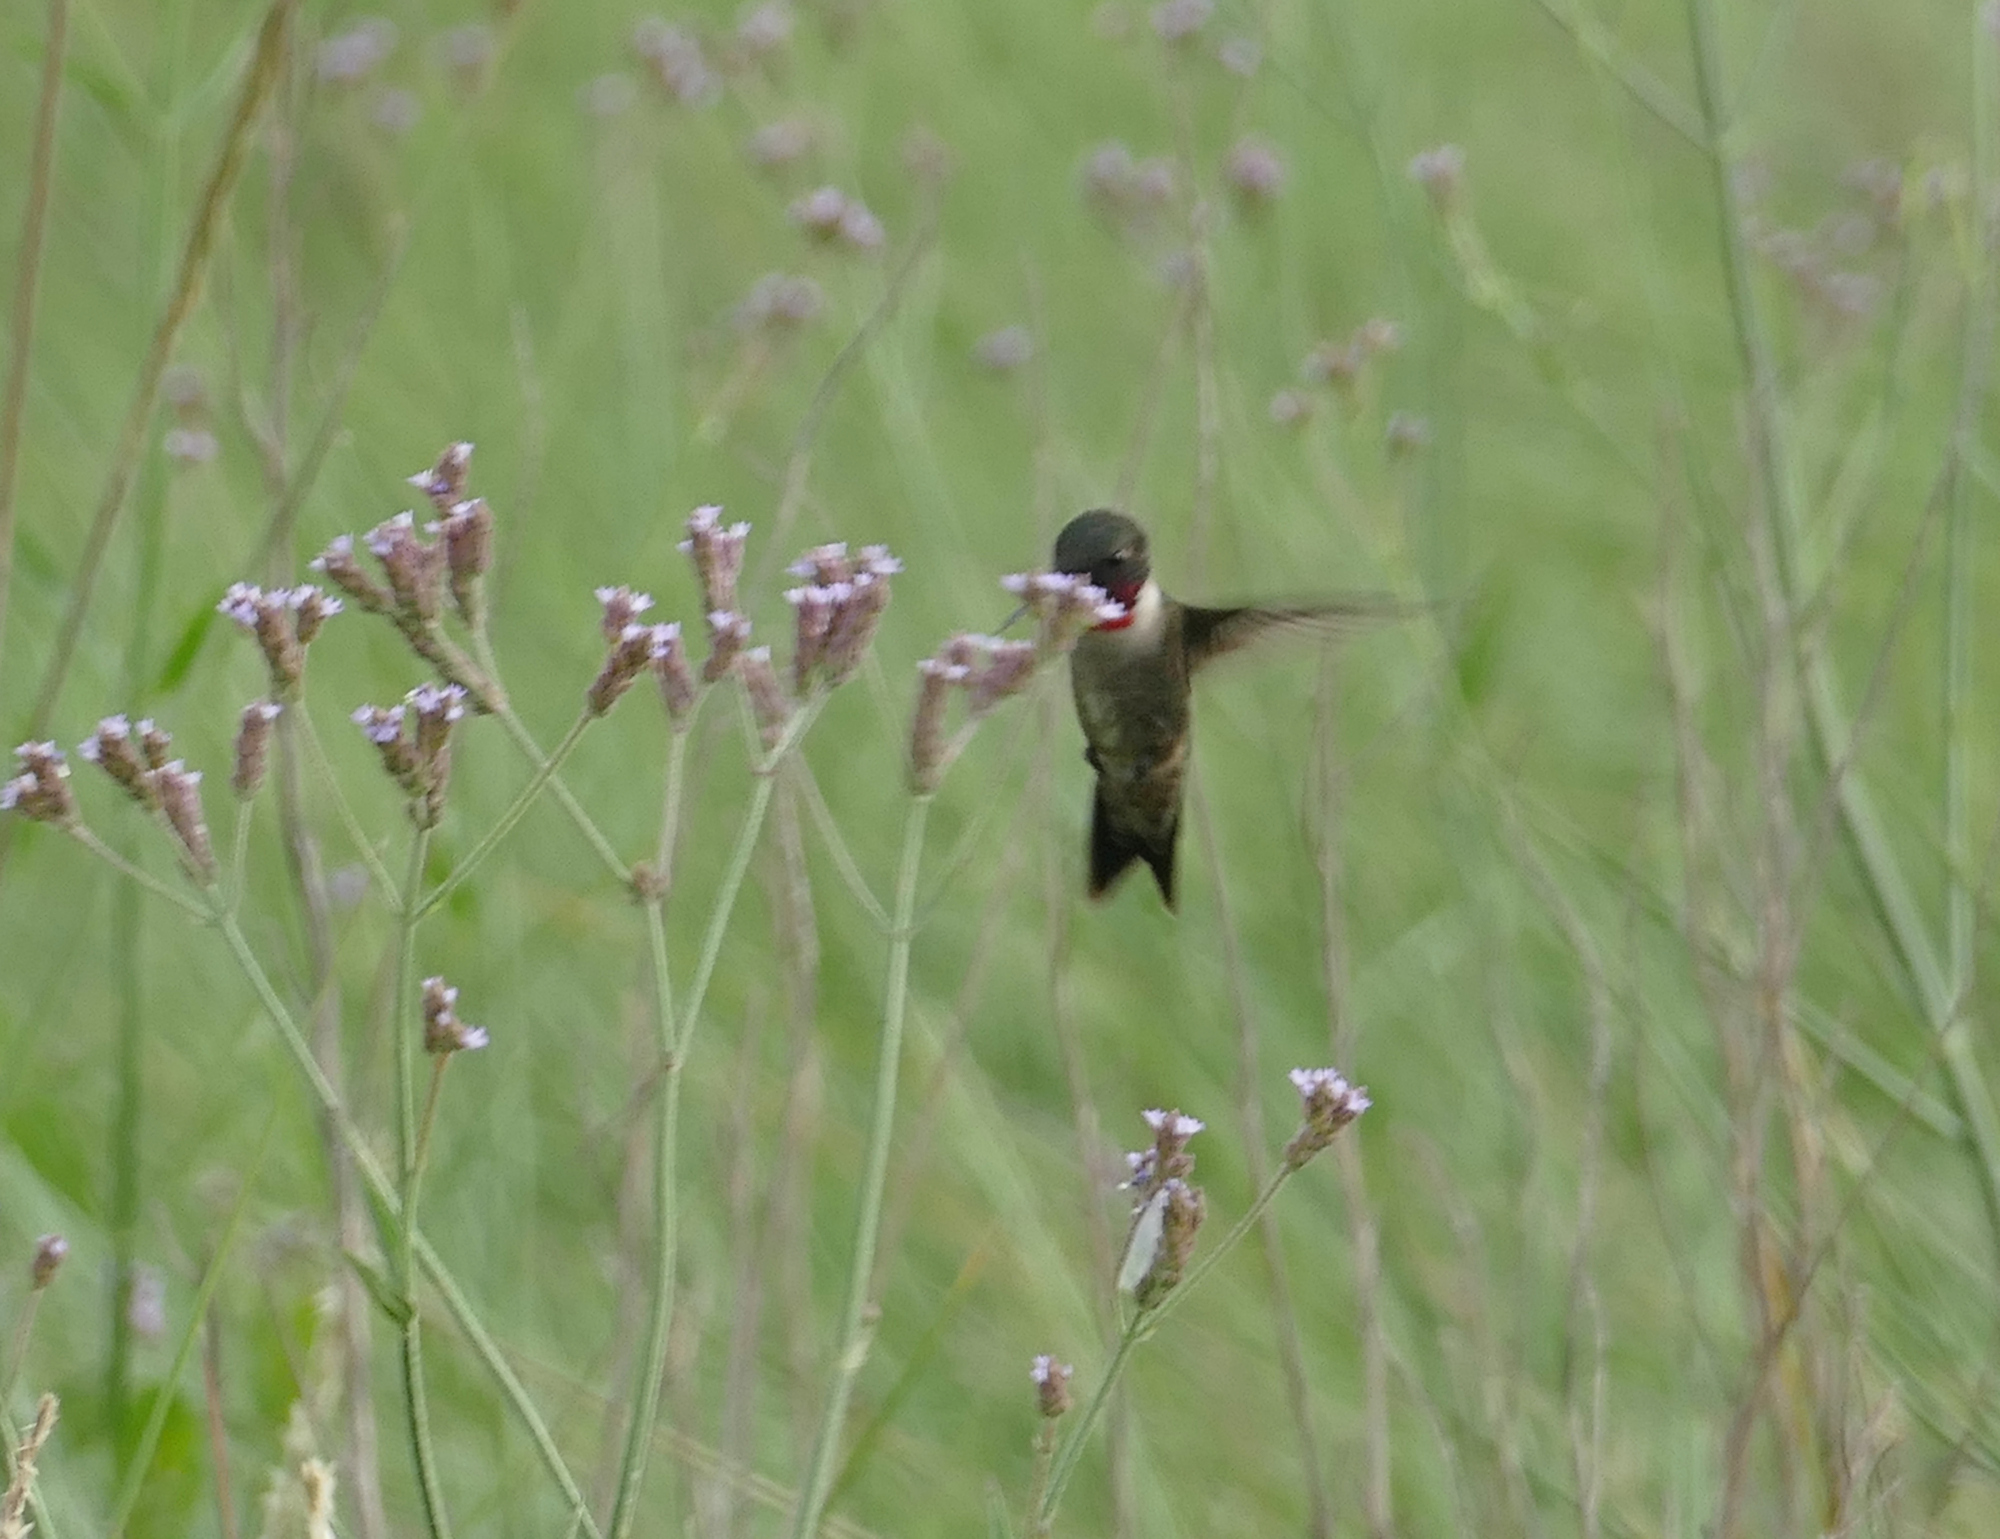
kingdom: Animalia
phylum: Chordata
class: Aves
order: Apodiformes
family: Trochilidae
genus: Archilochus
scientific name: Archilochus colubris
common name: Ruby-throated hummingbird
